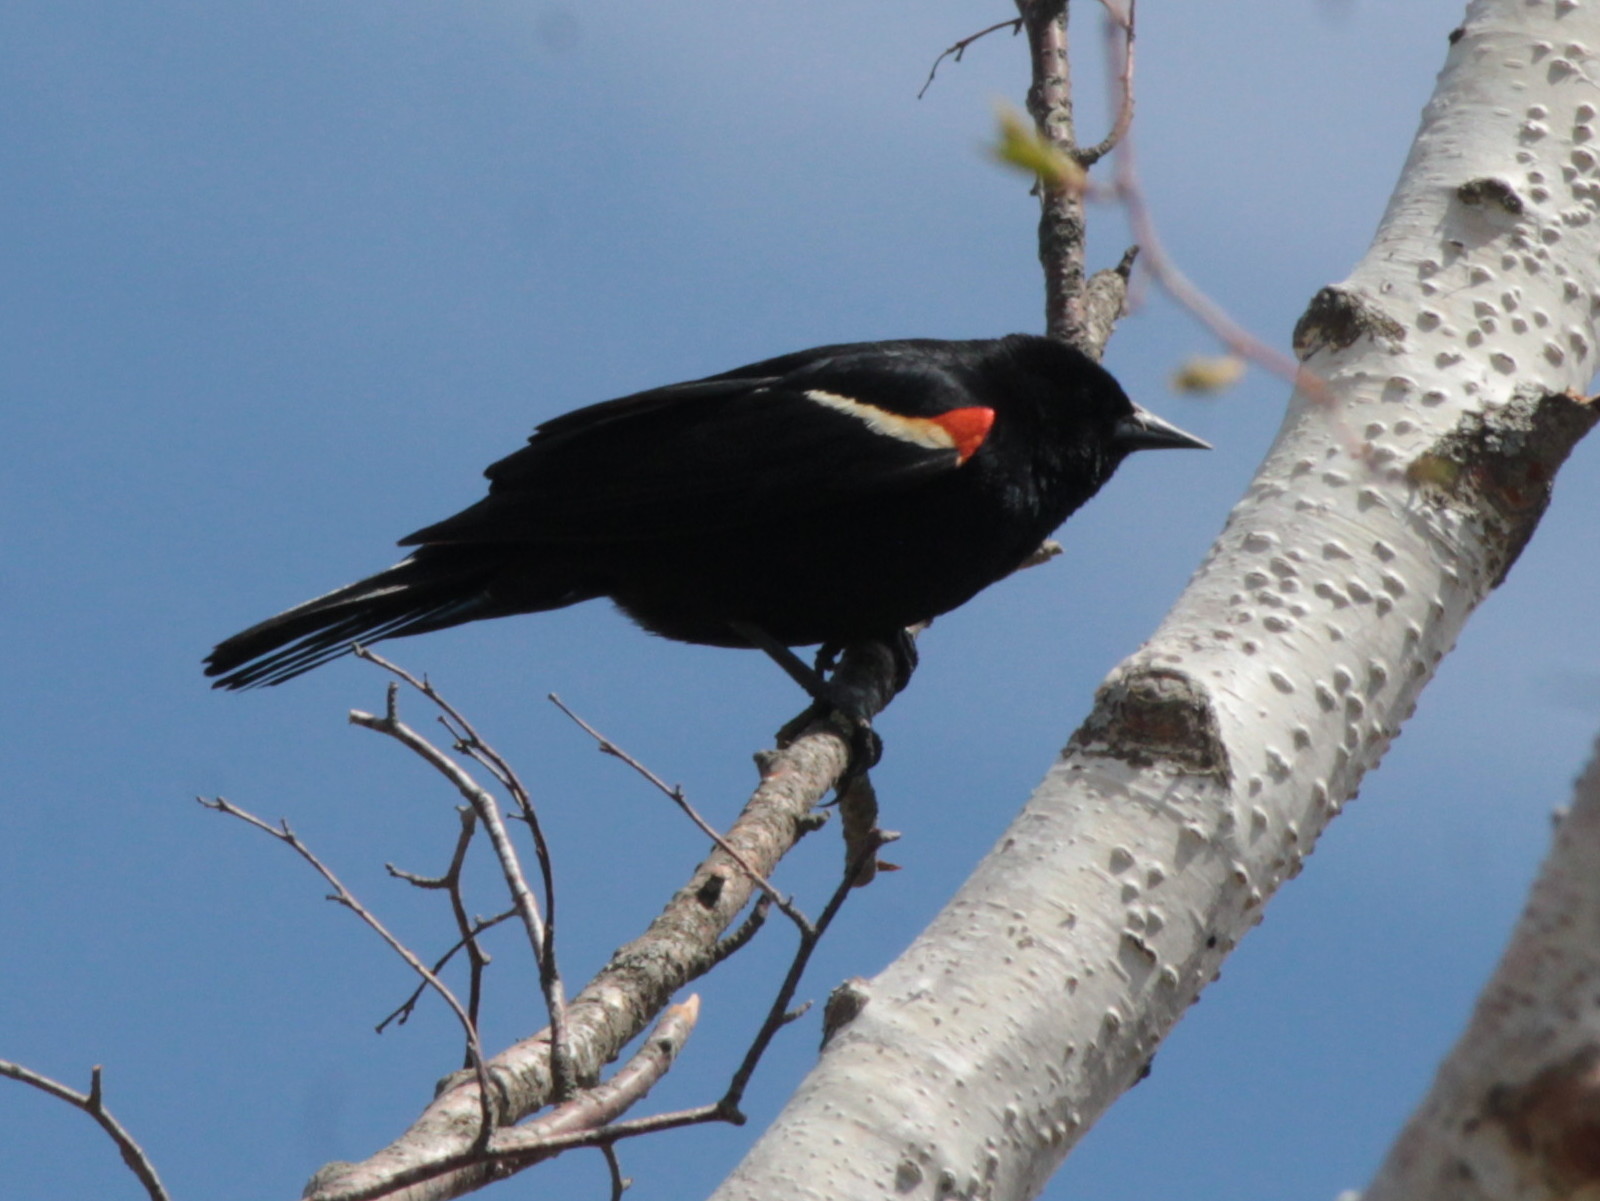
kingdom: Animalia
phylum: Chordata
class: Aves
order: Passeriformes
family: Icteridae
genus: Agelaius
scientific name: Agelaius phoeniceus
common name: Red-winged blackbird
